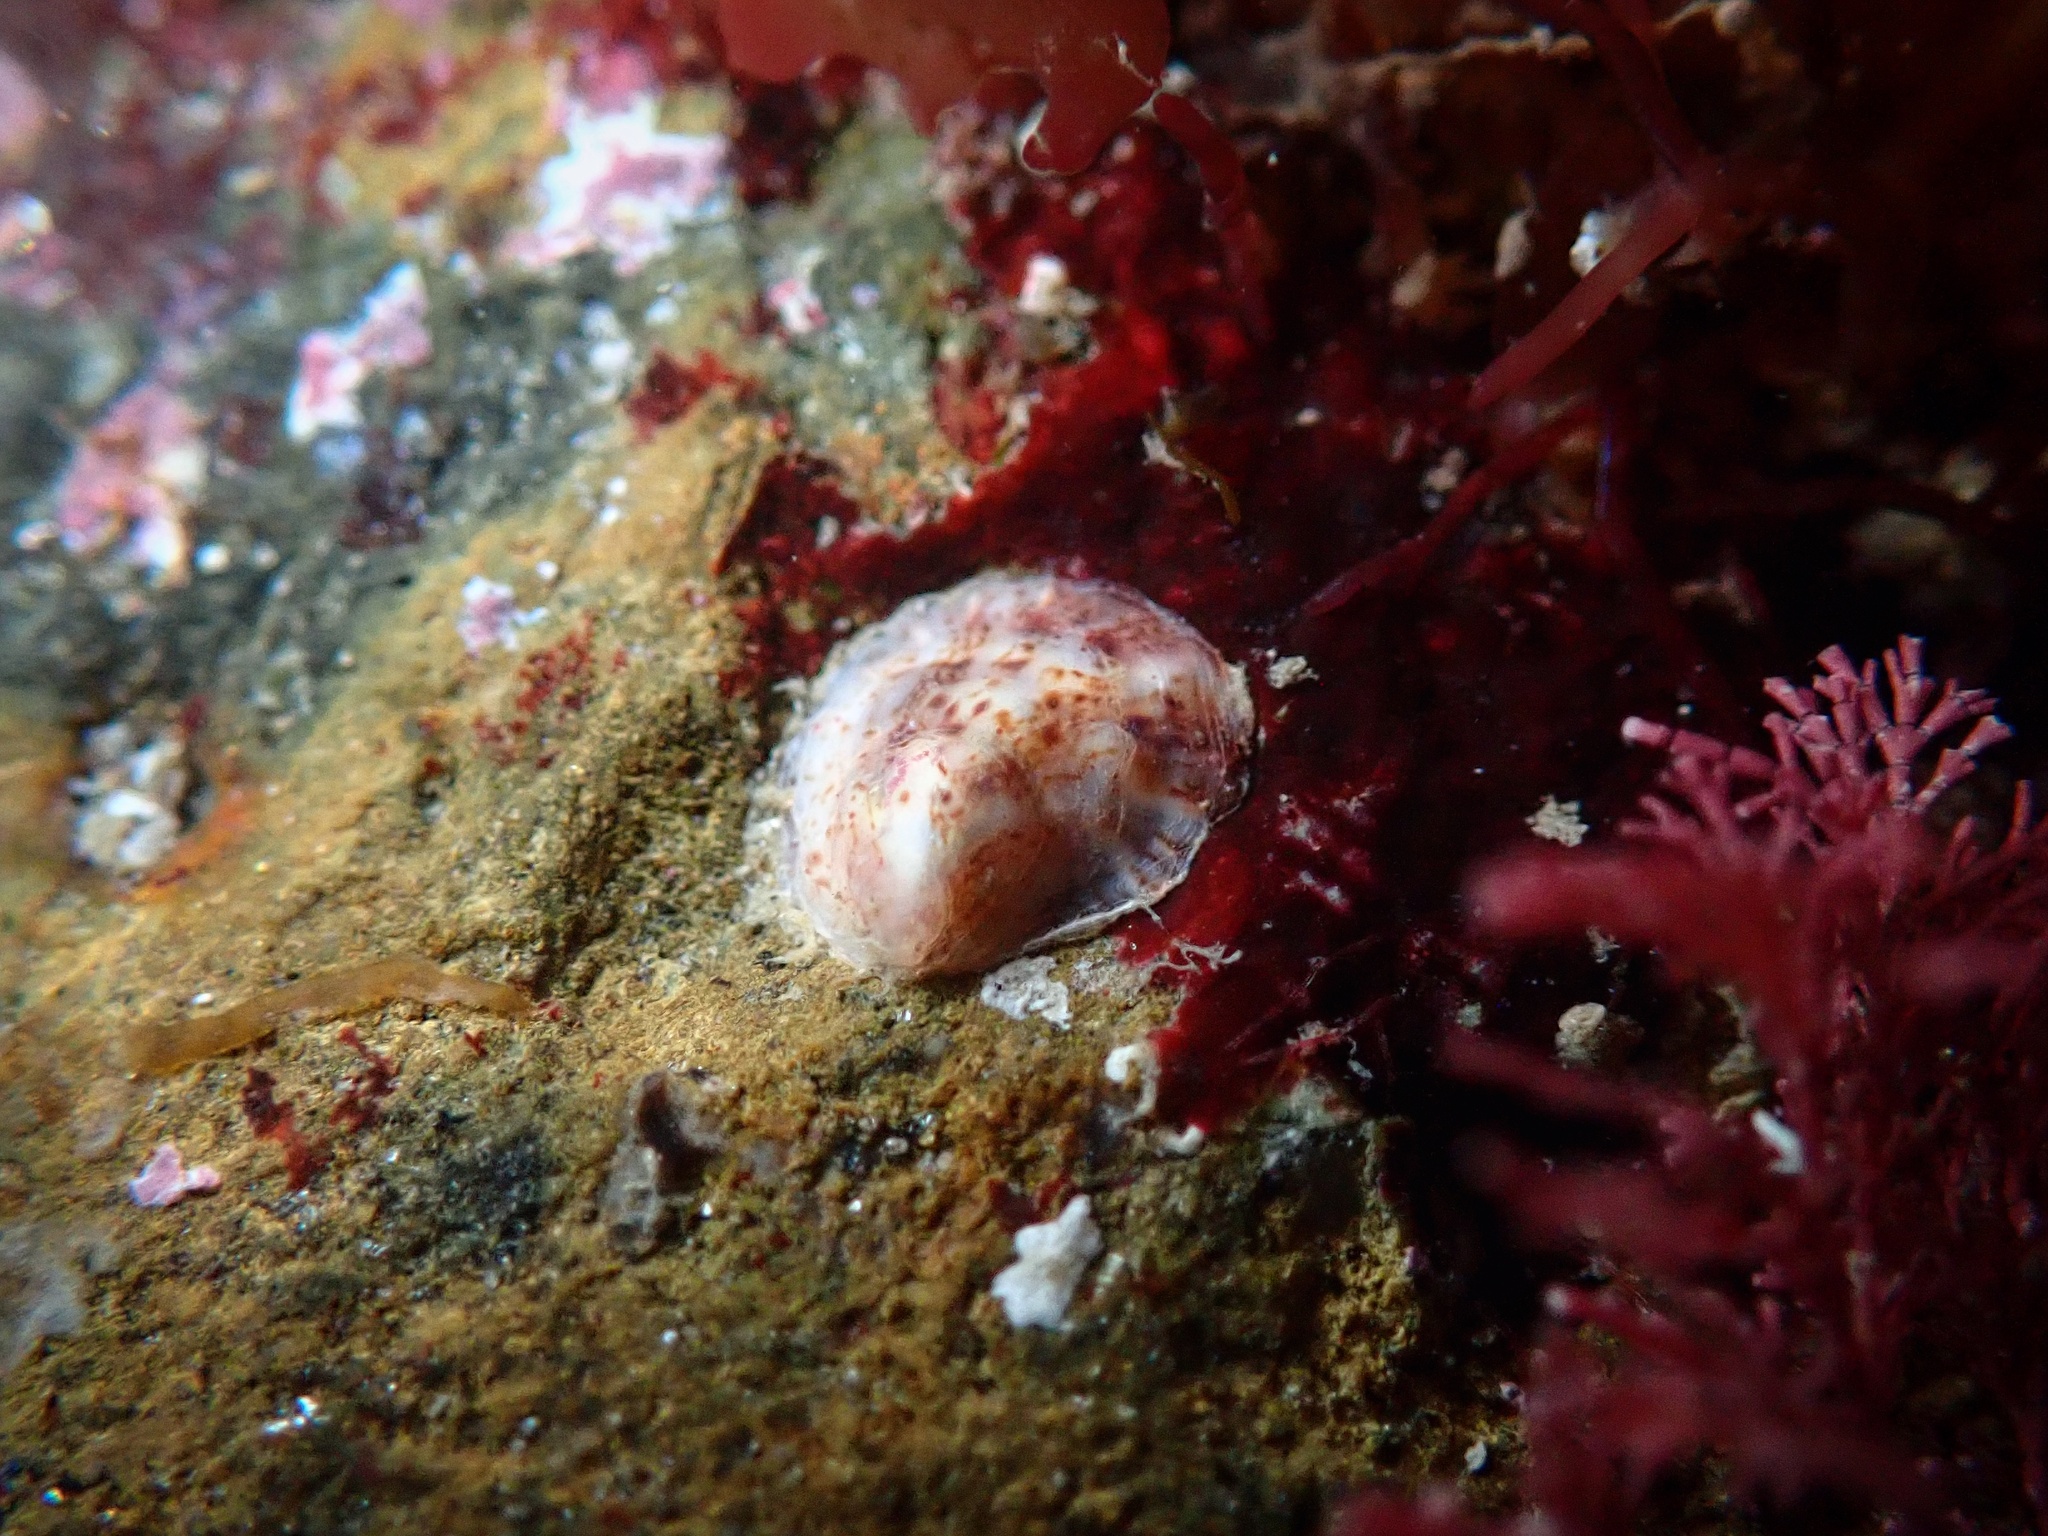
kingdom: Animalia
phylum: Mollusca
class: Gastropoda
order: Littorinimorpha
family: Calyptraeidae
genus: Crepipatella
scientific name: Crepipatella lingulata
